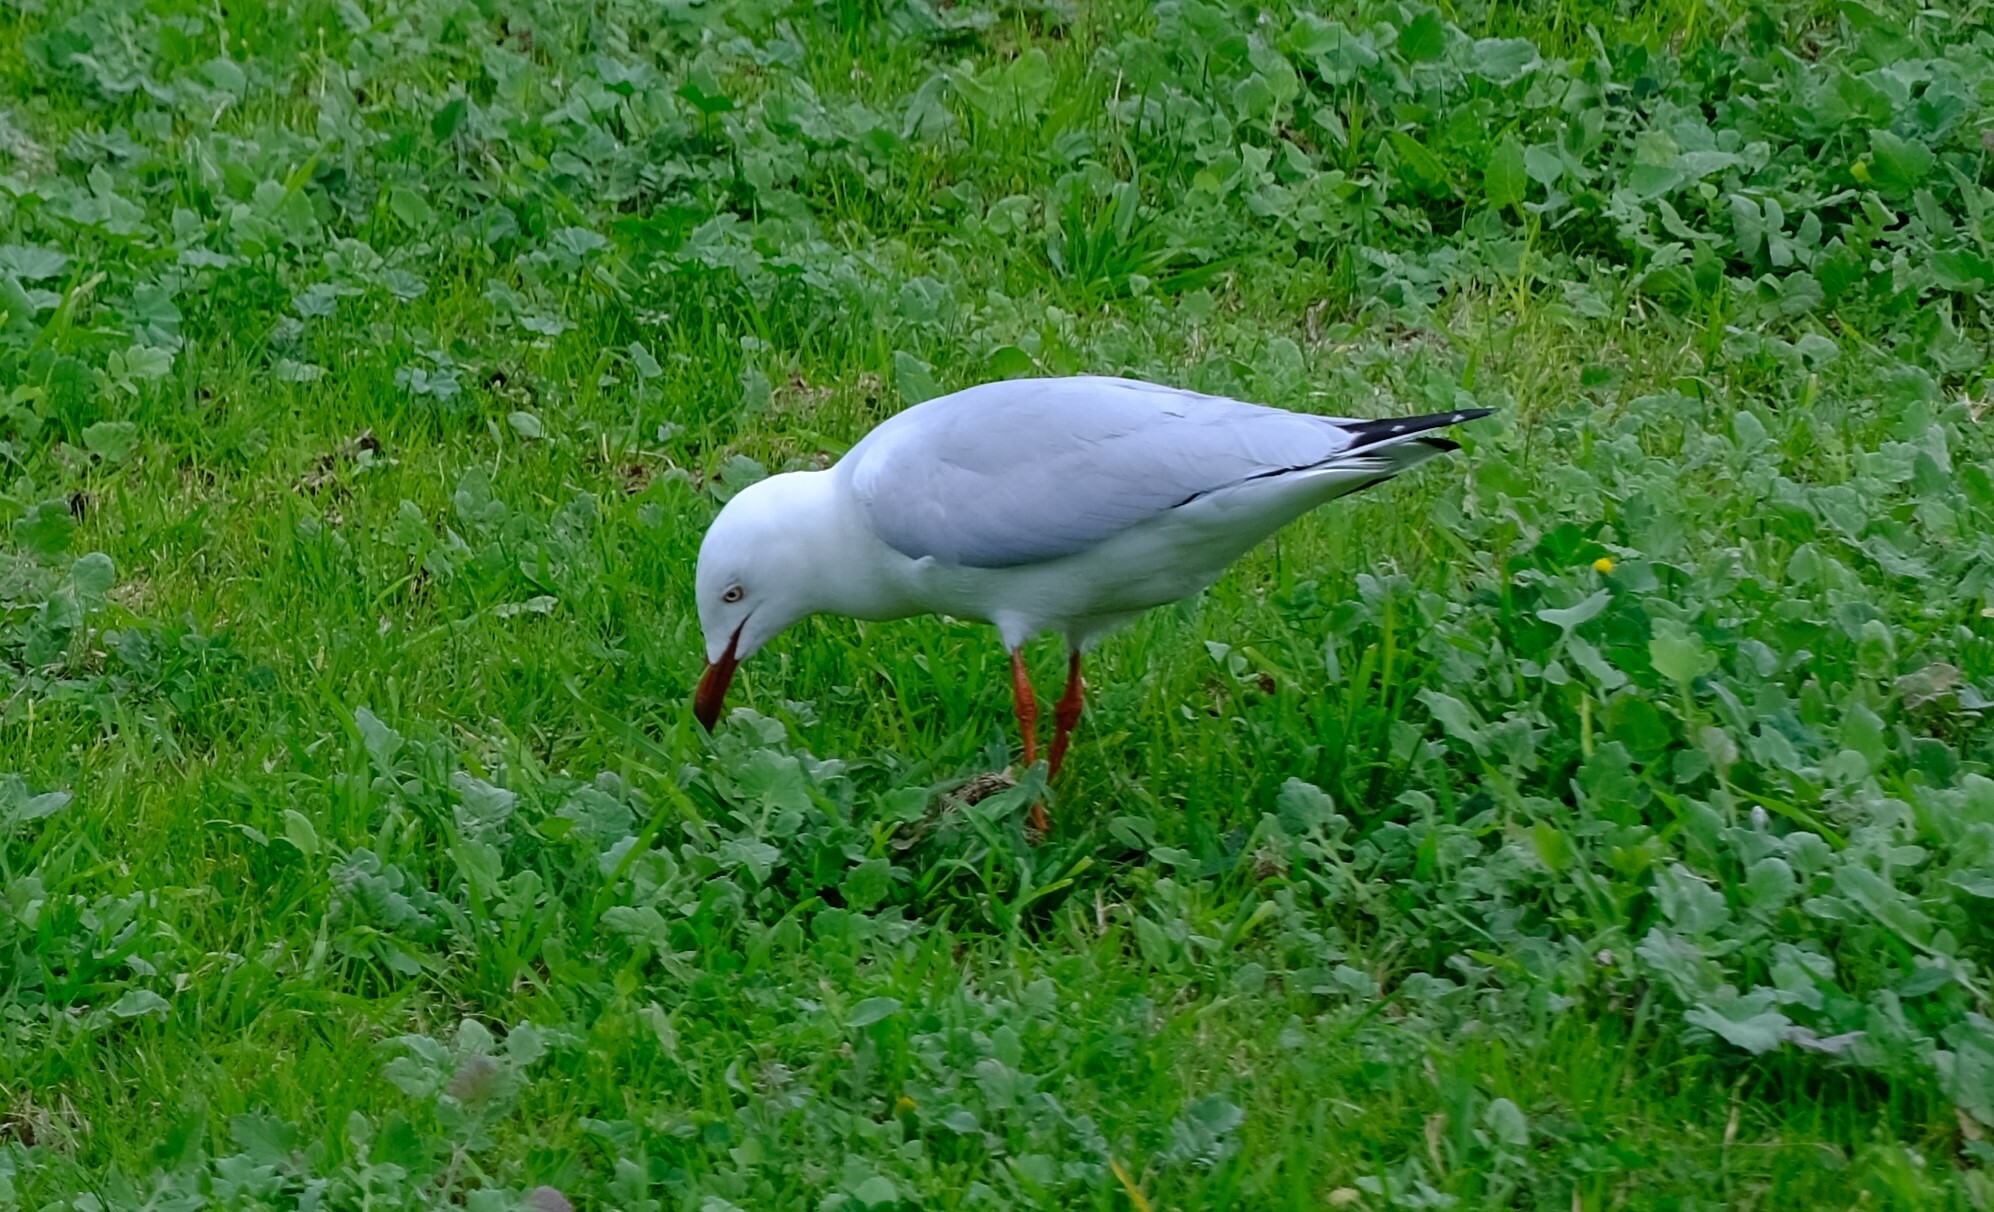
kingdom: Animalia
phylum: Chordata
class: Aves
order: Charadriiformes
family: Laridae
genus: Chroicocephalus
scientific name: Chroicocephalus novaehollandiae
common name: Silver gull
